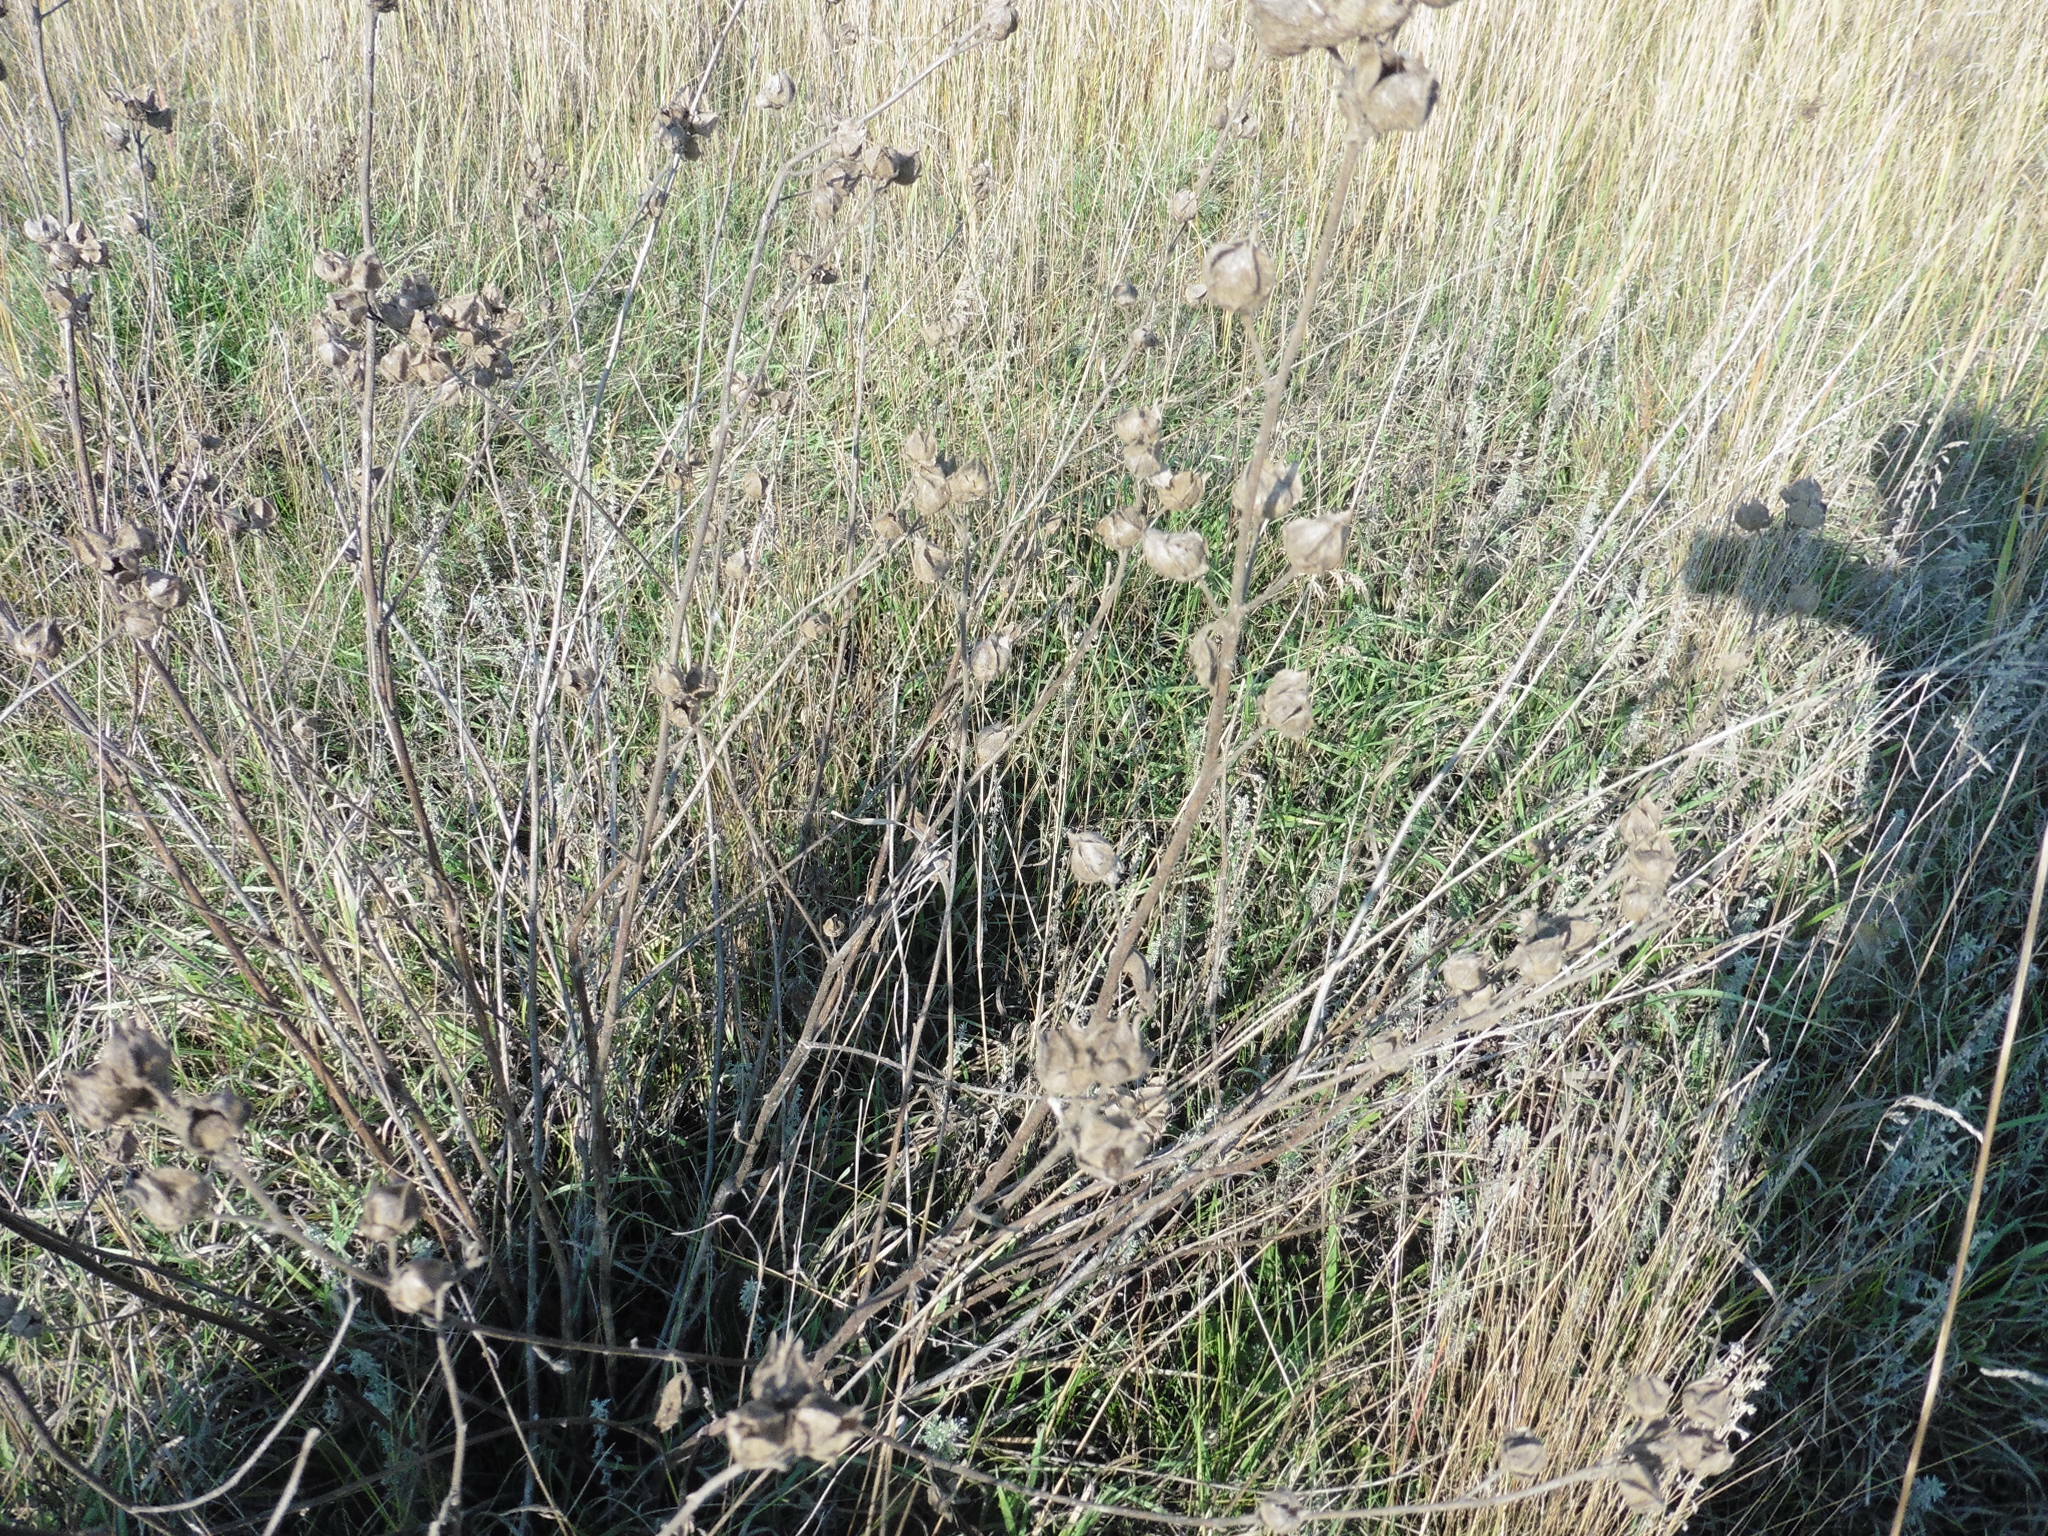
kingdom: Plantae
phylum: Tracheophyta
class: Magnoliopsida
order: Malvales
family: Malvaceae
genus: Malva
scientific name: Malva thuringiaca
